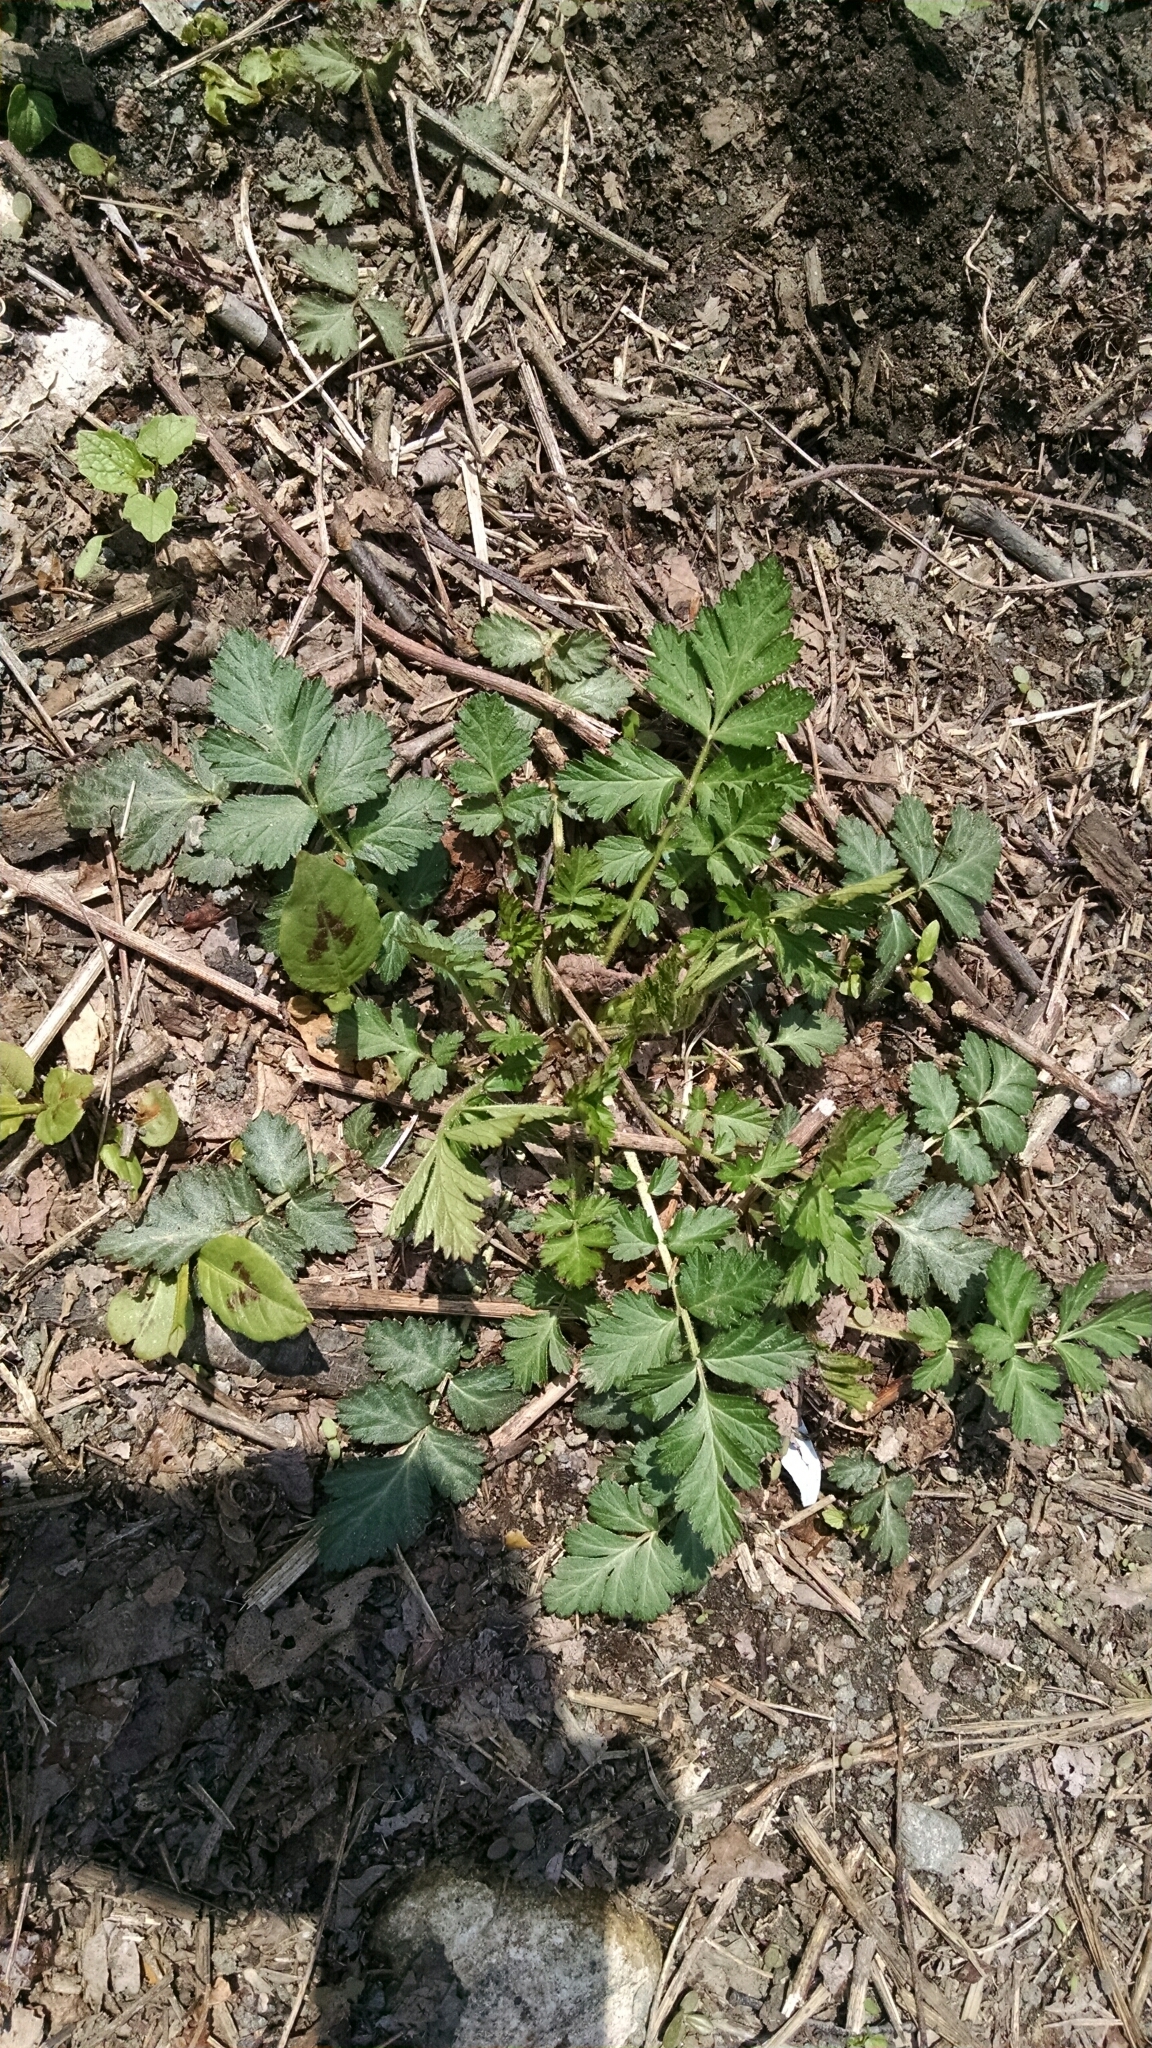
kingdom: Plantae
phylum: Tracheophyta
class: Magnoliopsida
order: Rosales
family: Rosaceae
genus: Geum
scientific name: Geum canadense
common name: White avens
